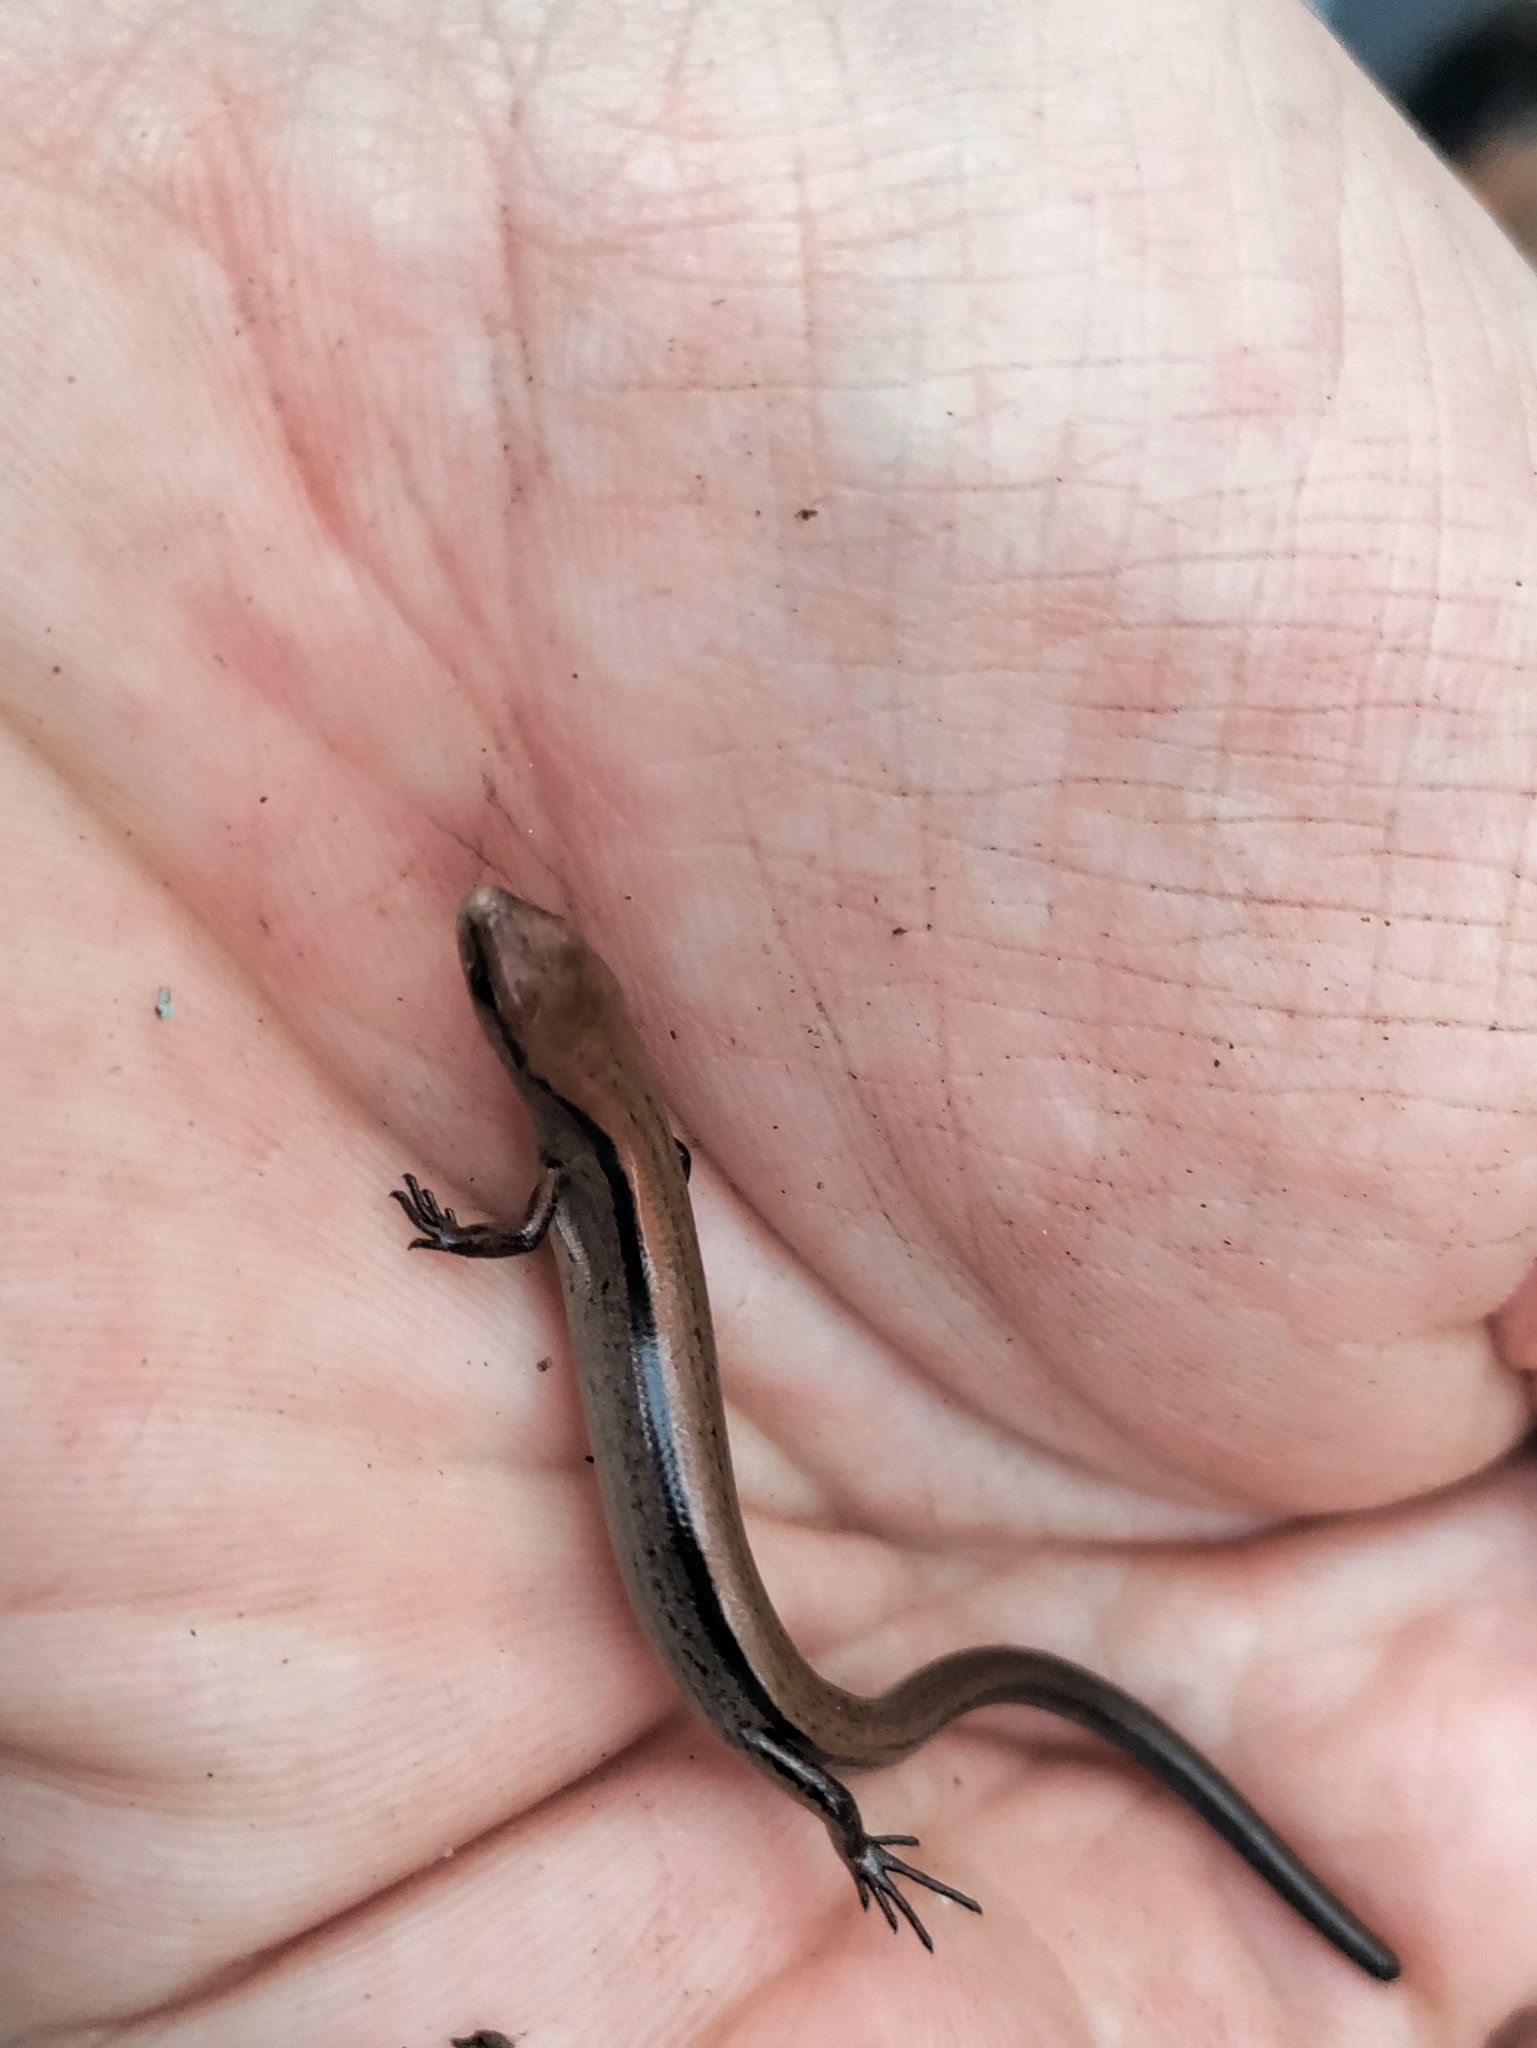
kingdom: Animalia
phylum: Chordata
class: Squamata
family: Scincidae
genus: Scincella
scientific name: Scincella lateralis
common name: Ground skink
